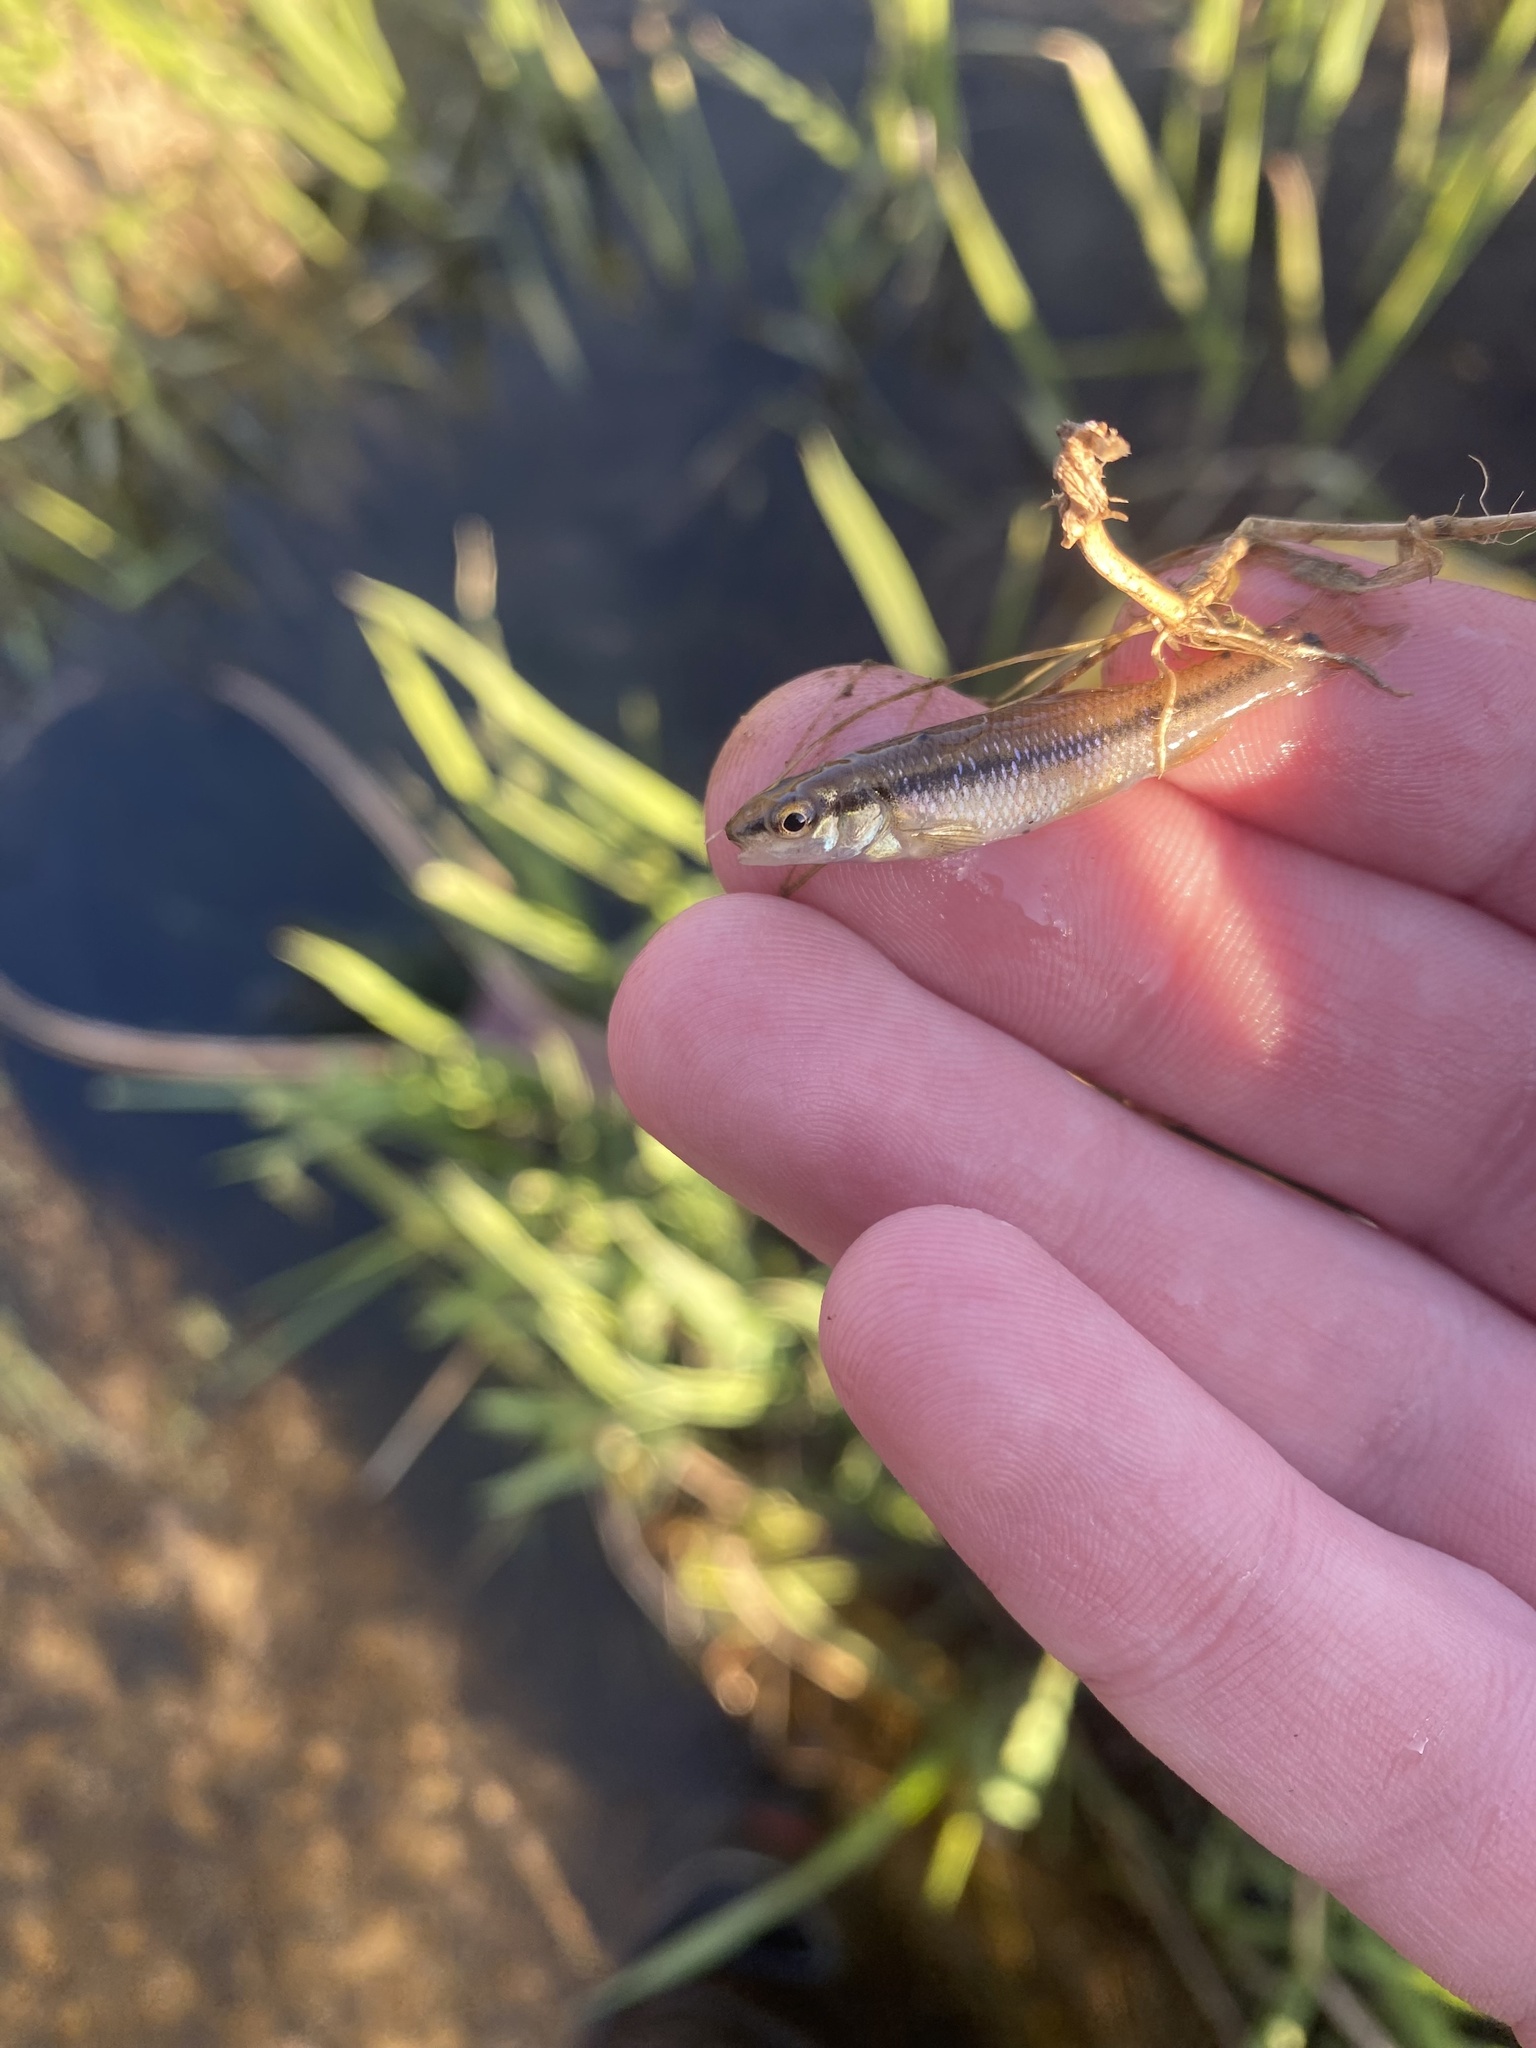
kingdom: Animalia
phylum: Chordata
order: Cypriniformes
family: Cyprinidae
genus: Nocomis
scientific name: Nocomis biguttatus
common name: Hornyhead chub
